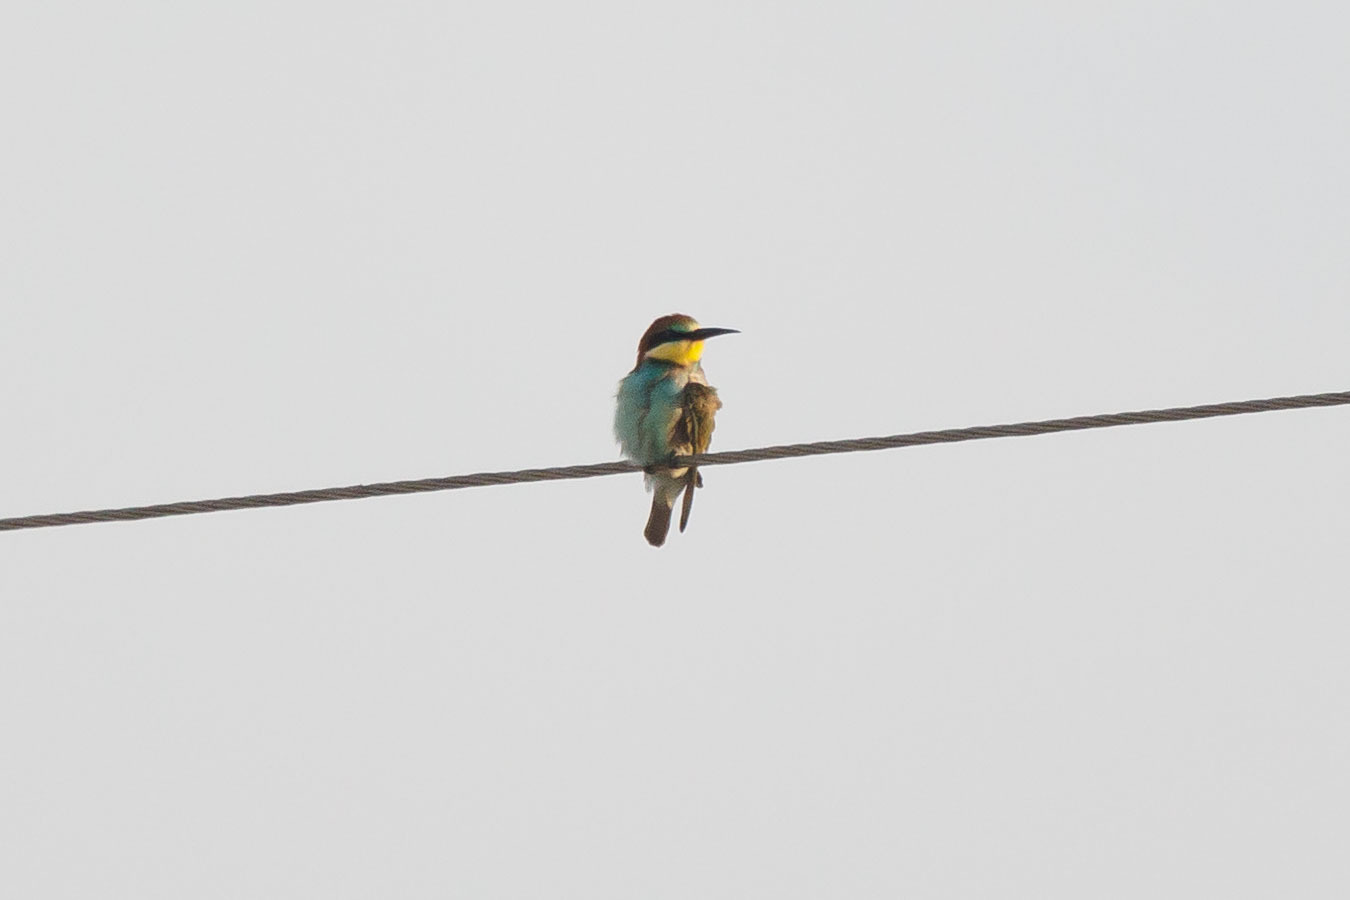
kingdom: Animalia
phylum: Chordata
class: Aves
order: Coraciiformes
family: Meropidae
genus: Merops
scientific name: Merops apiaster
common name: European bee-eater
